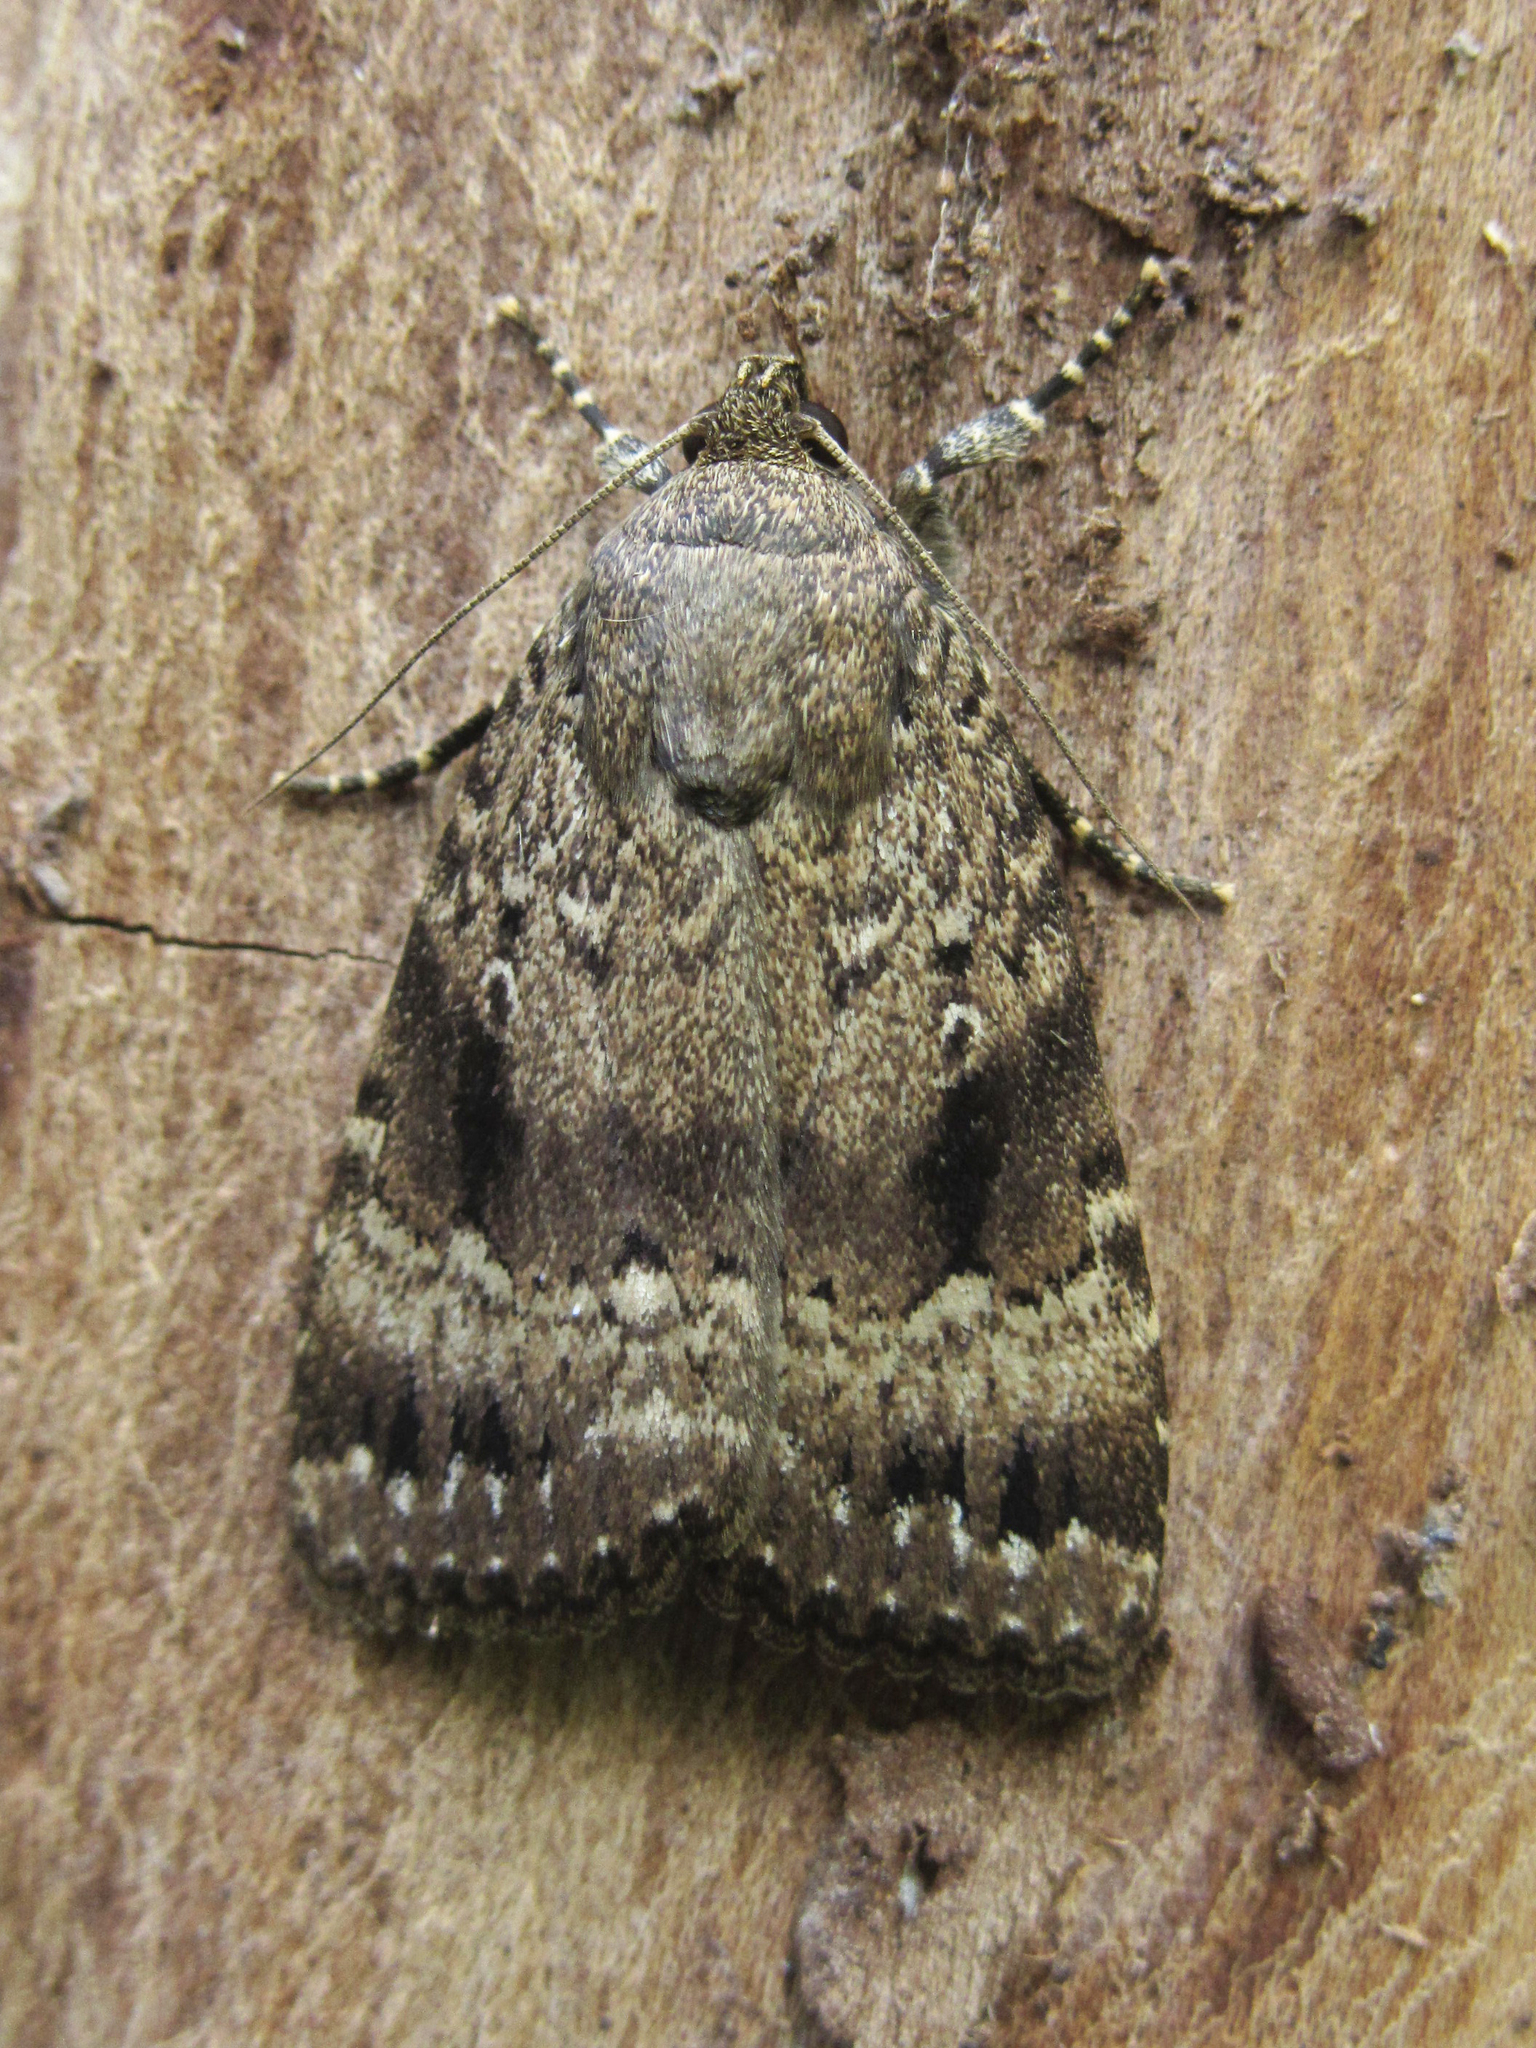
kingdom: Animalia
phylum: Arthropoda
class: Insecta
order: Lepidoptera
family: Noctuidae
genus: Amphipyra
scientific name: Amphipyra pyramidea
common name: Copper underwing
